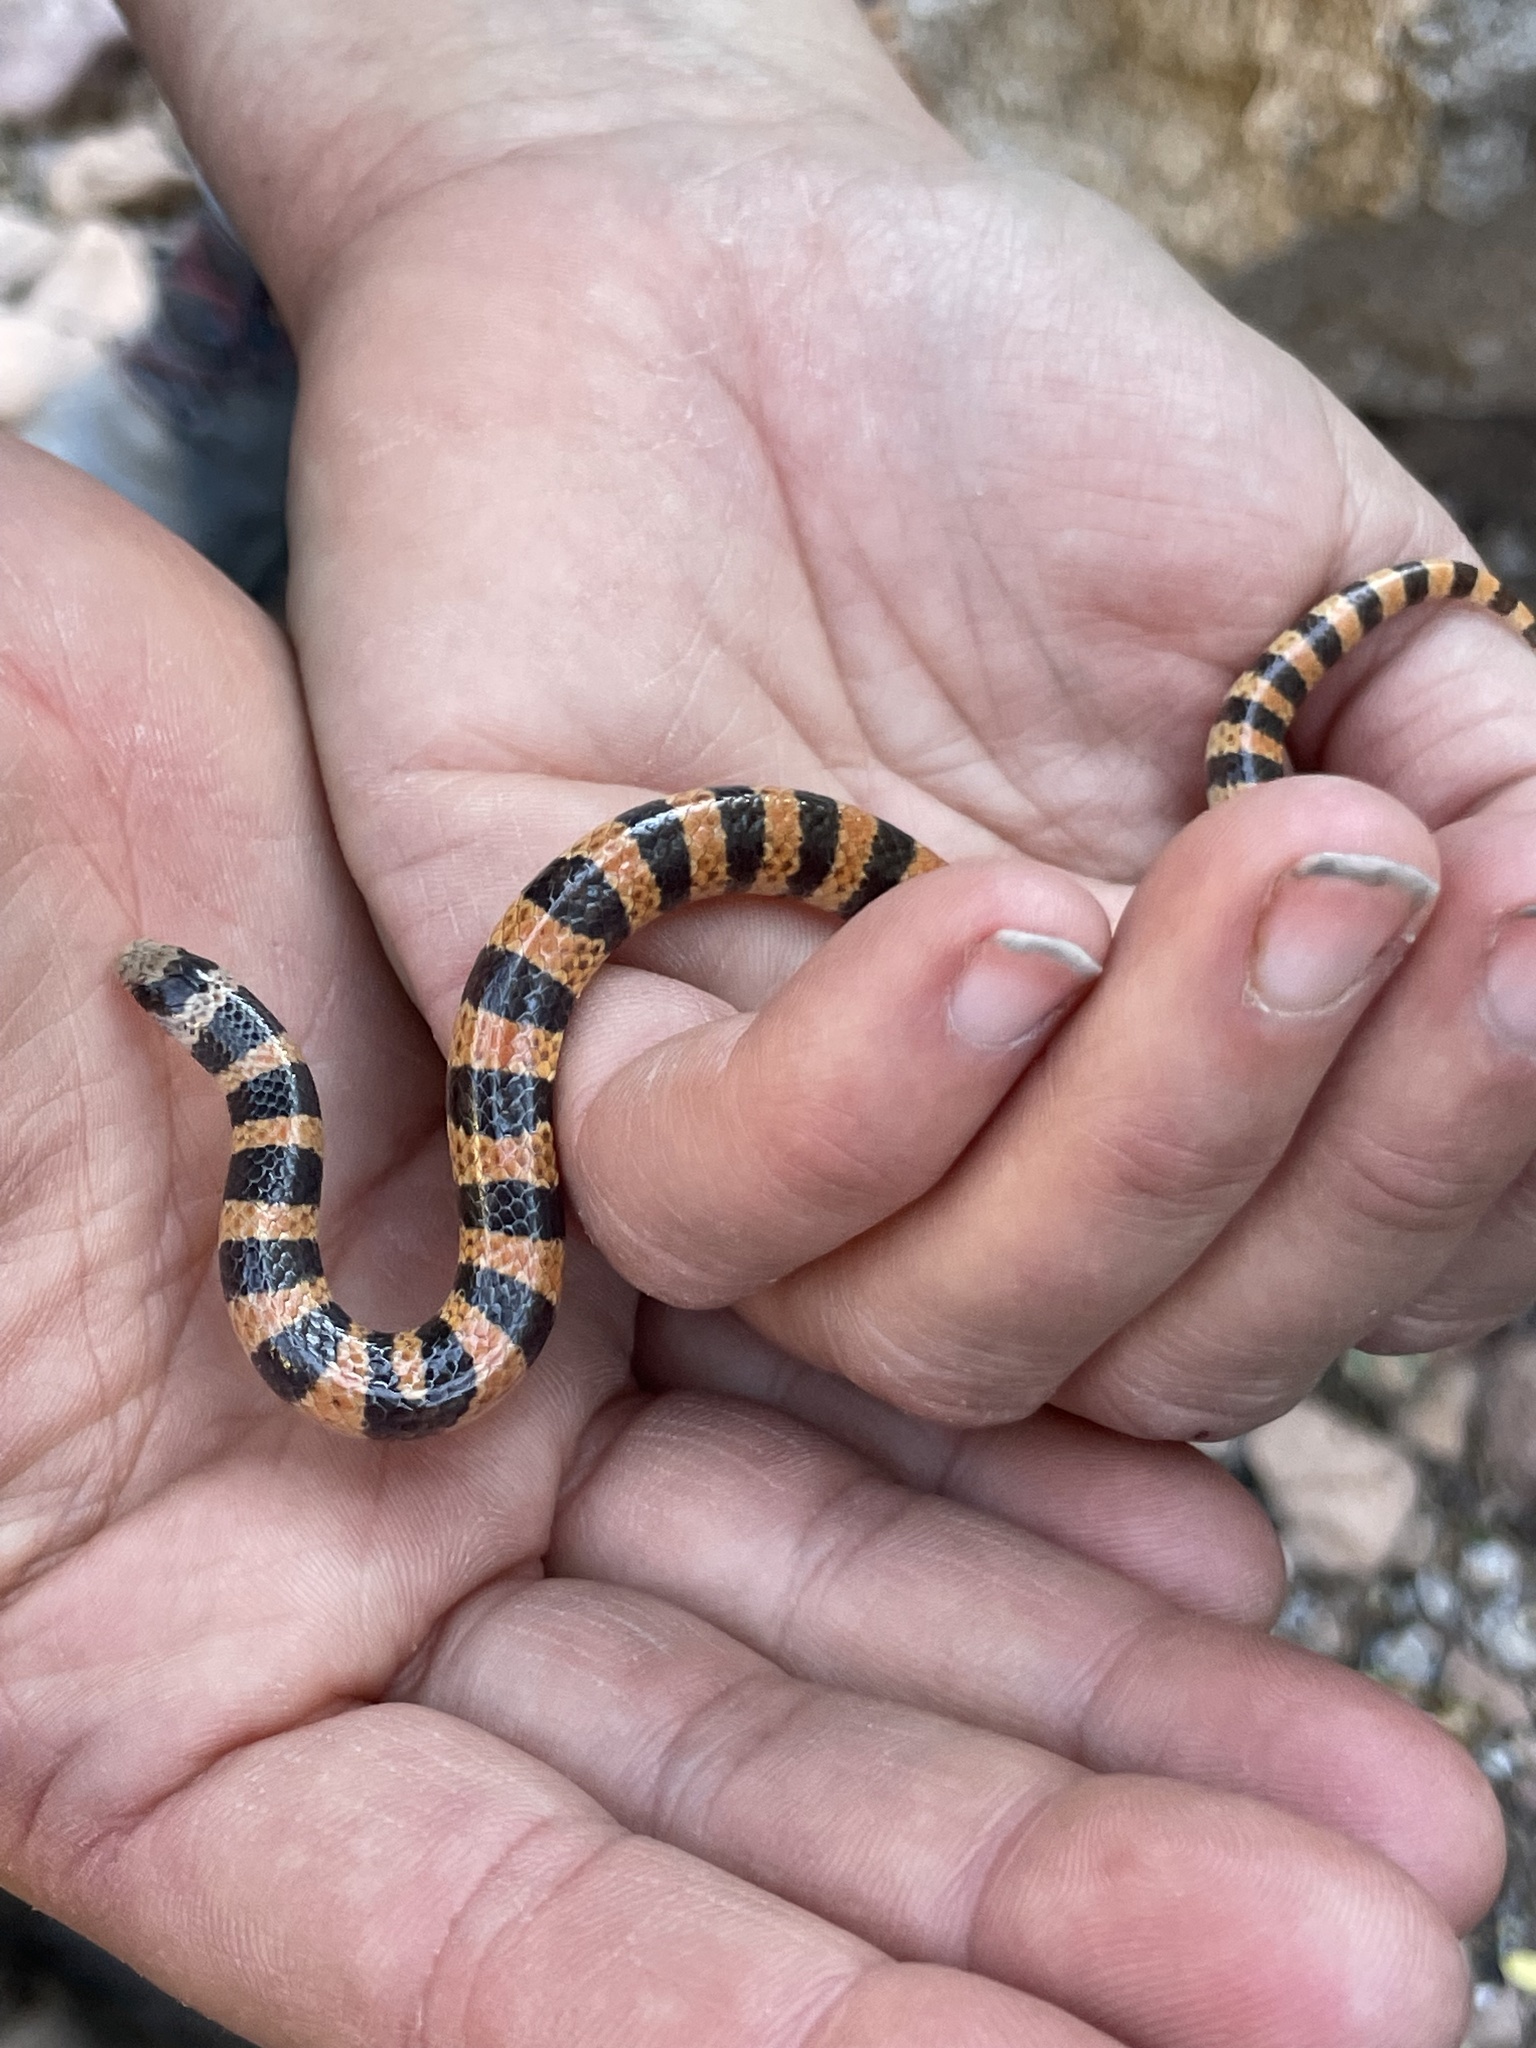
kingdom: Animalia
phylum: Chordata
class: Squamata
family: Colubridae
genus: Sonora
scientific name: Sonora cincta
